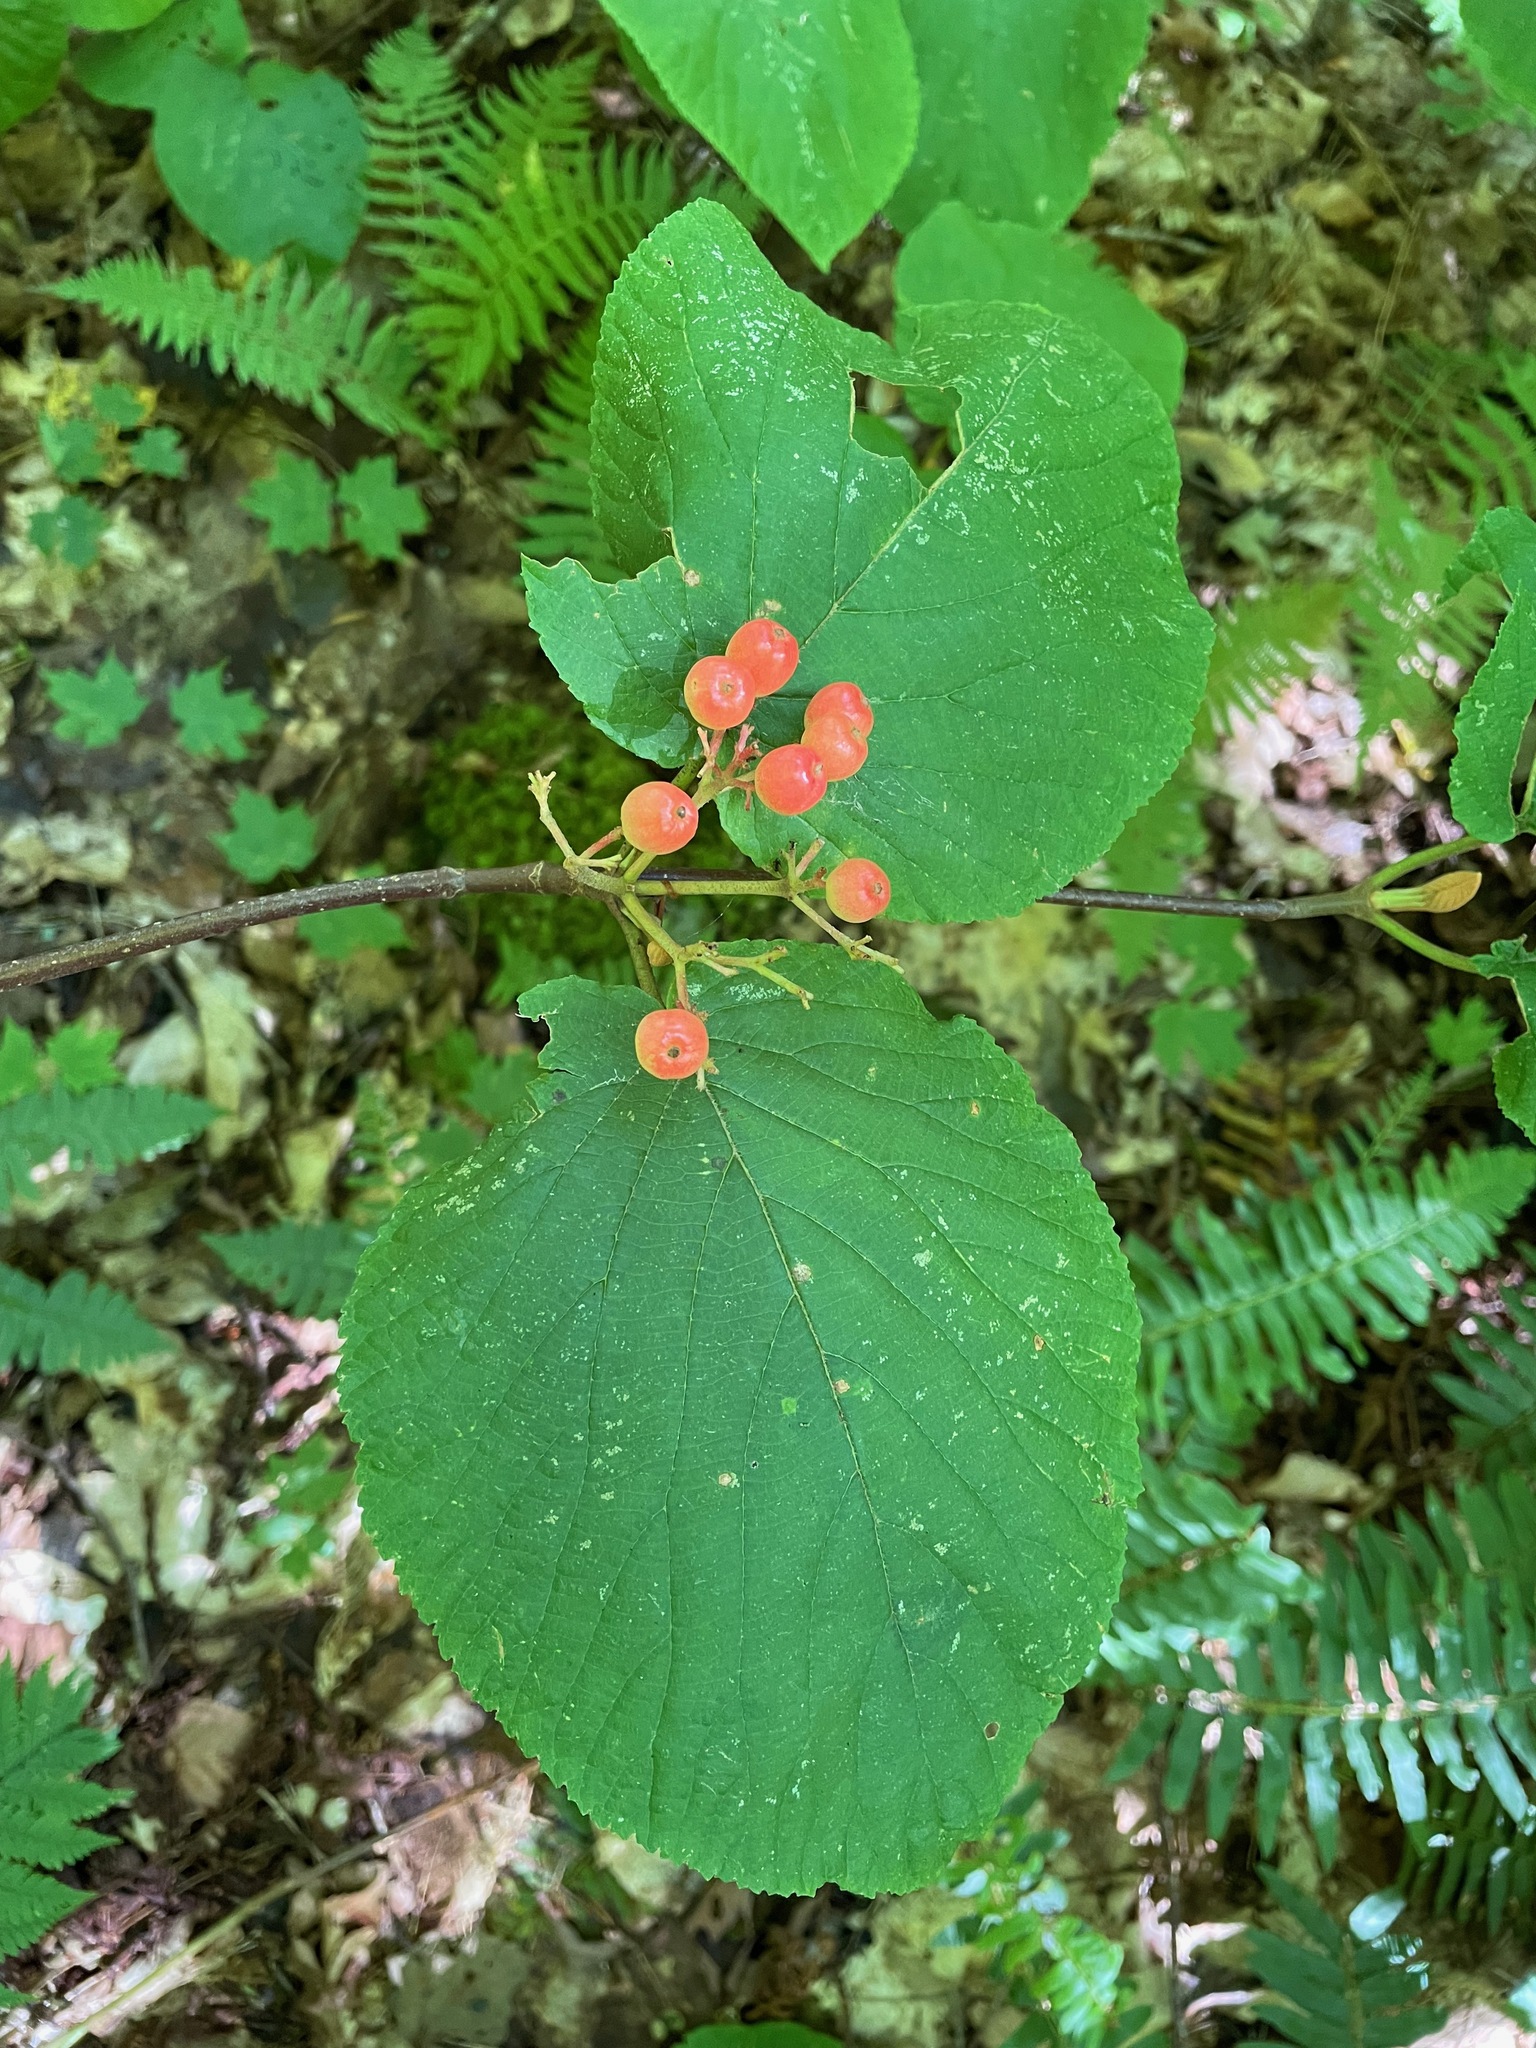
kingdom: Plantae
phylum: Tracheophyta
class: Magnoliopsida
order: Dipsacales
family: Viburnaceae
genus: Viburnum
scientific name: Viburnum lantanoides
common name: Hobblebush
